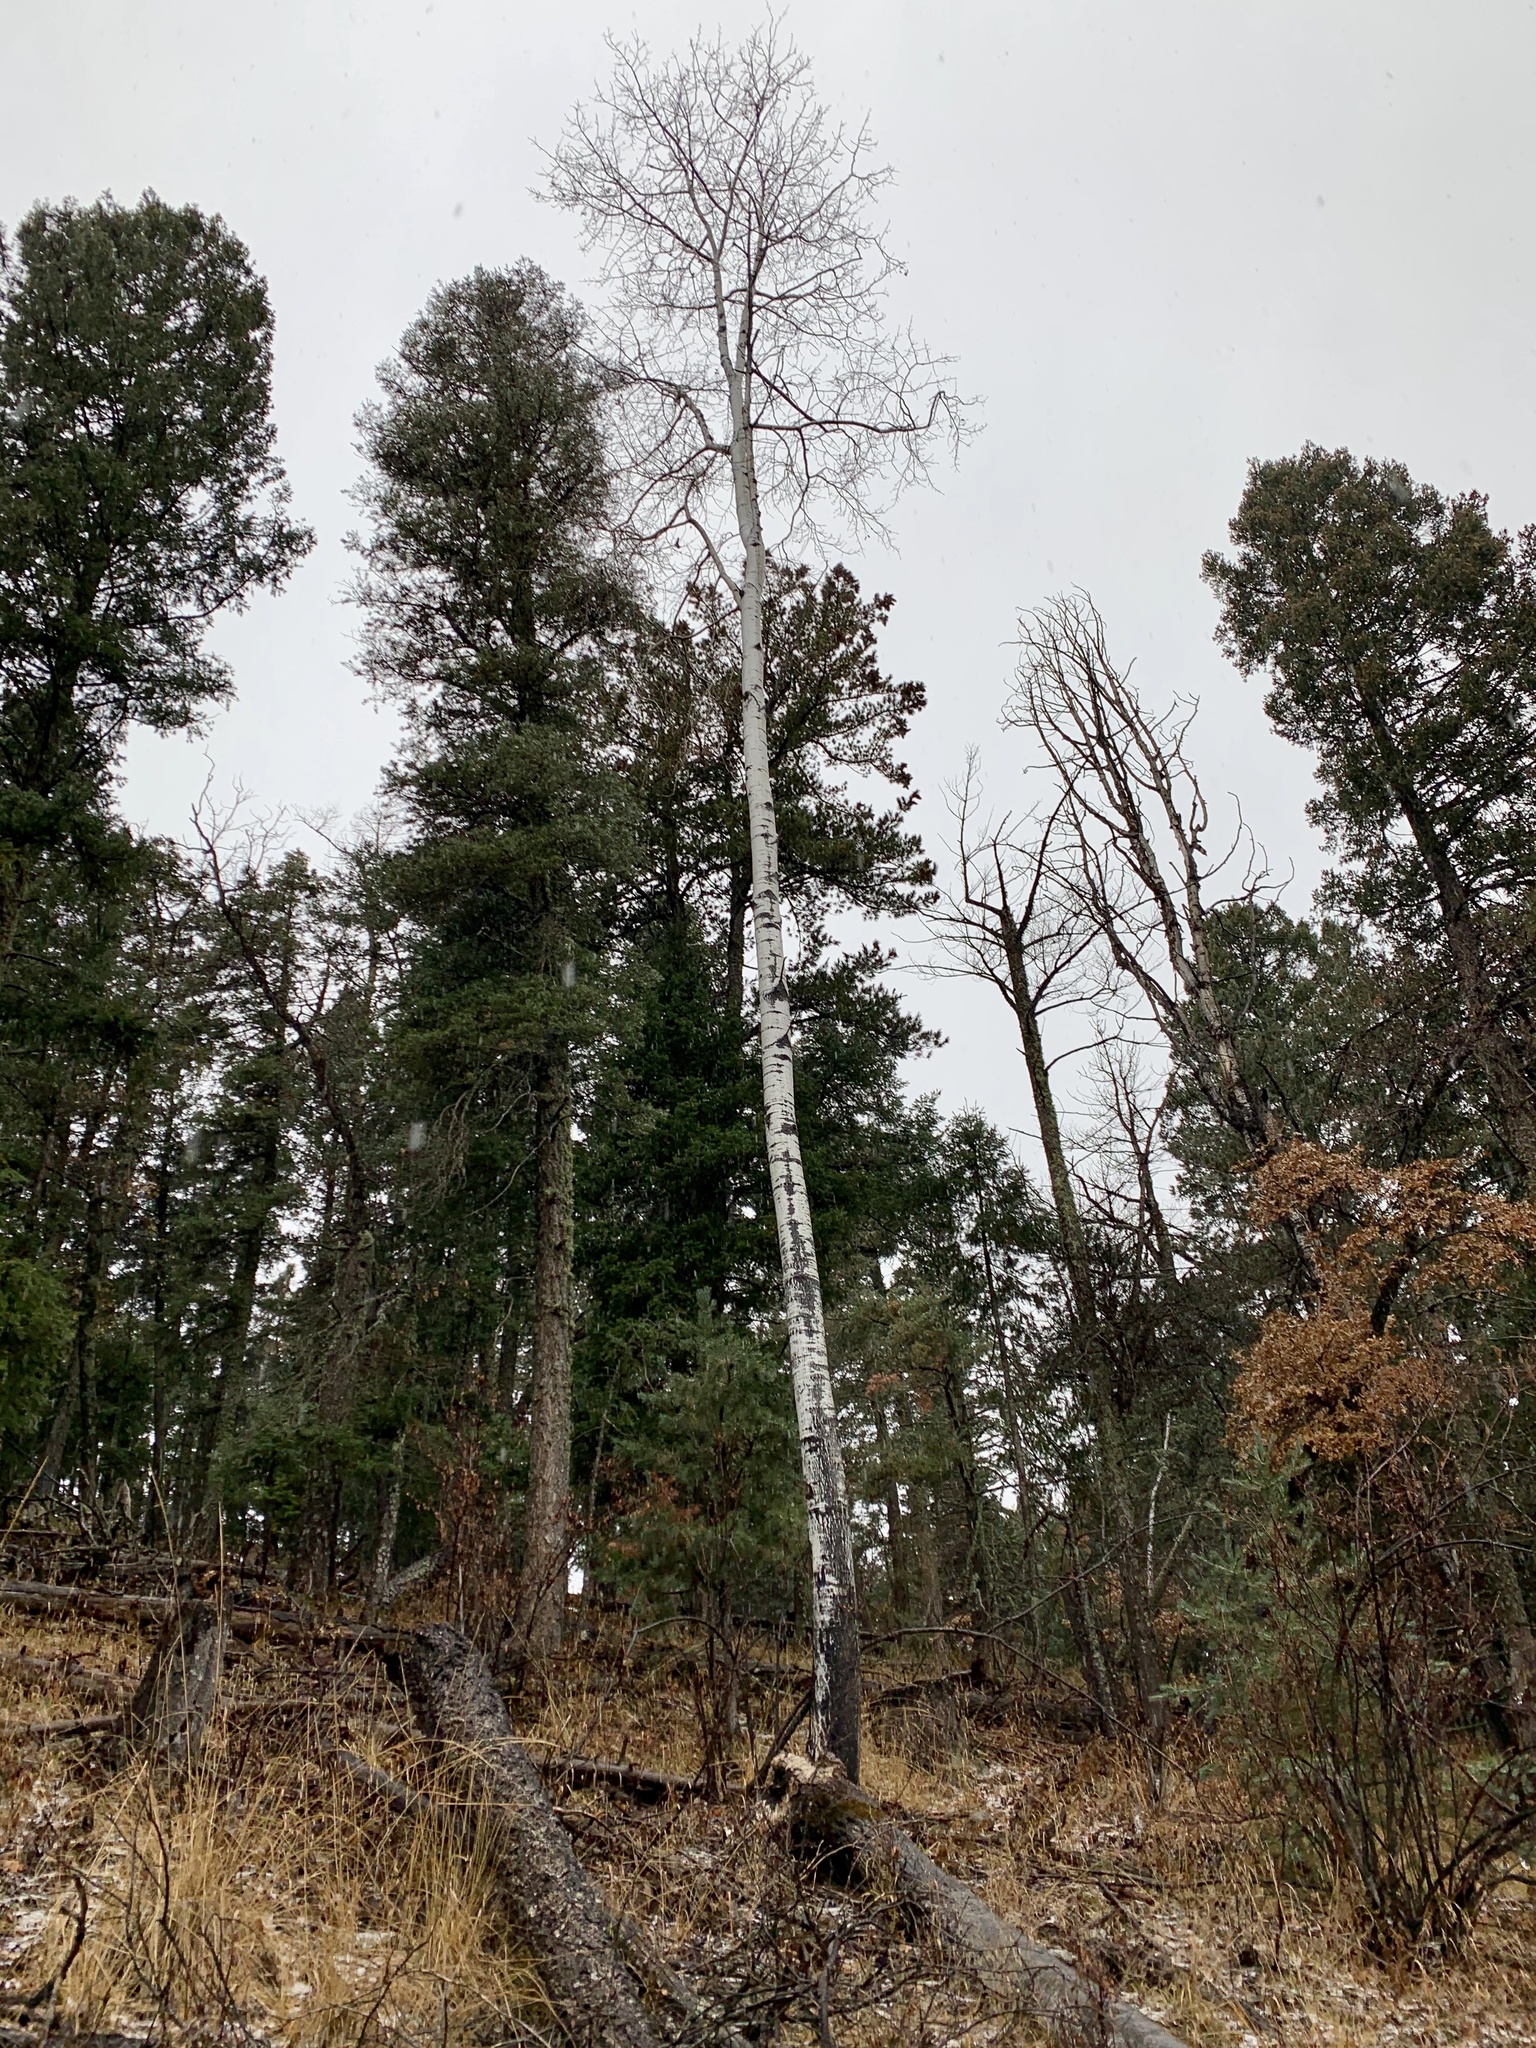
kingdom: Plantae
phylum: Tracheophyta
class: Magnoliopsida
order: Malpighiales
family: Salicaceae
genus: Populus
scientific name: Populus tremuloides
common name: Quaking aspen
